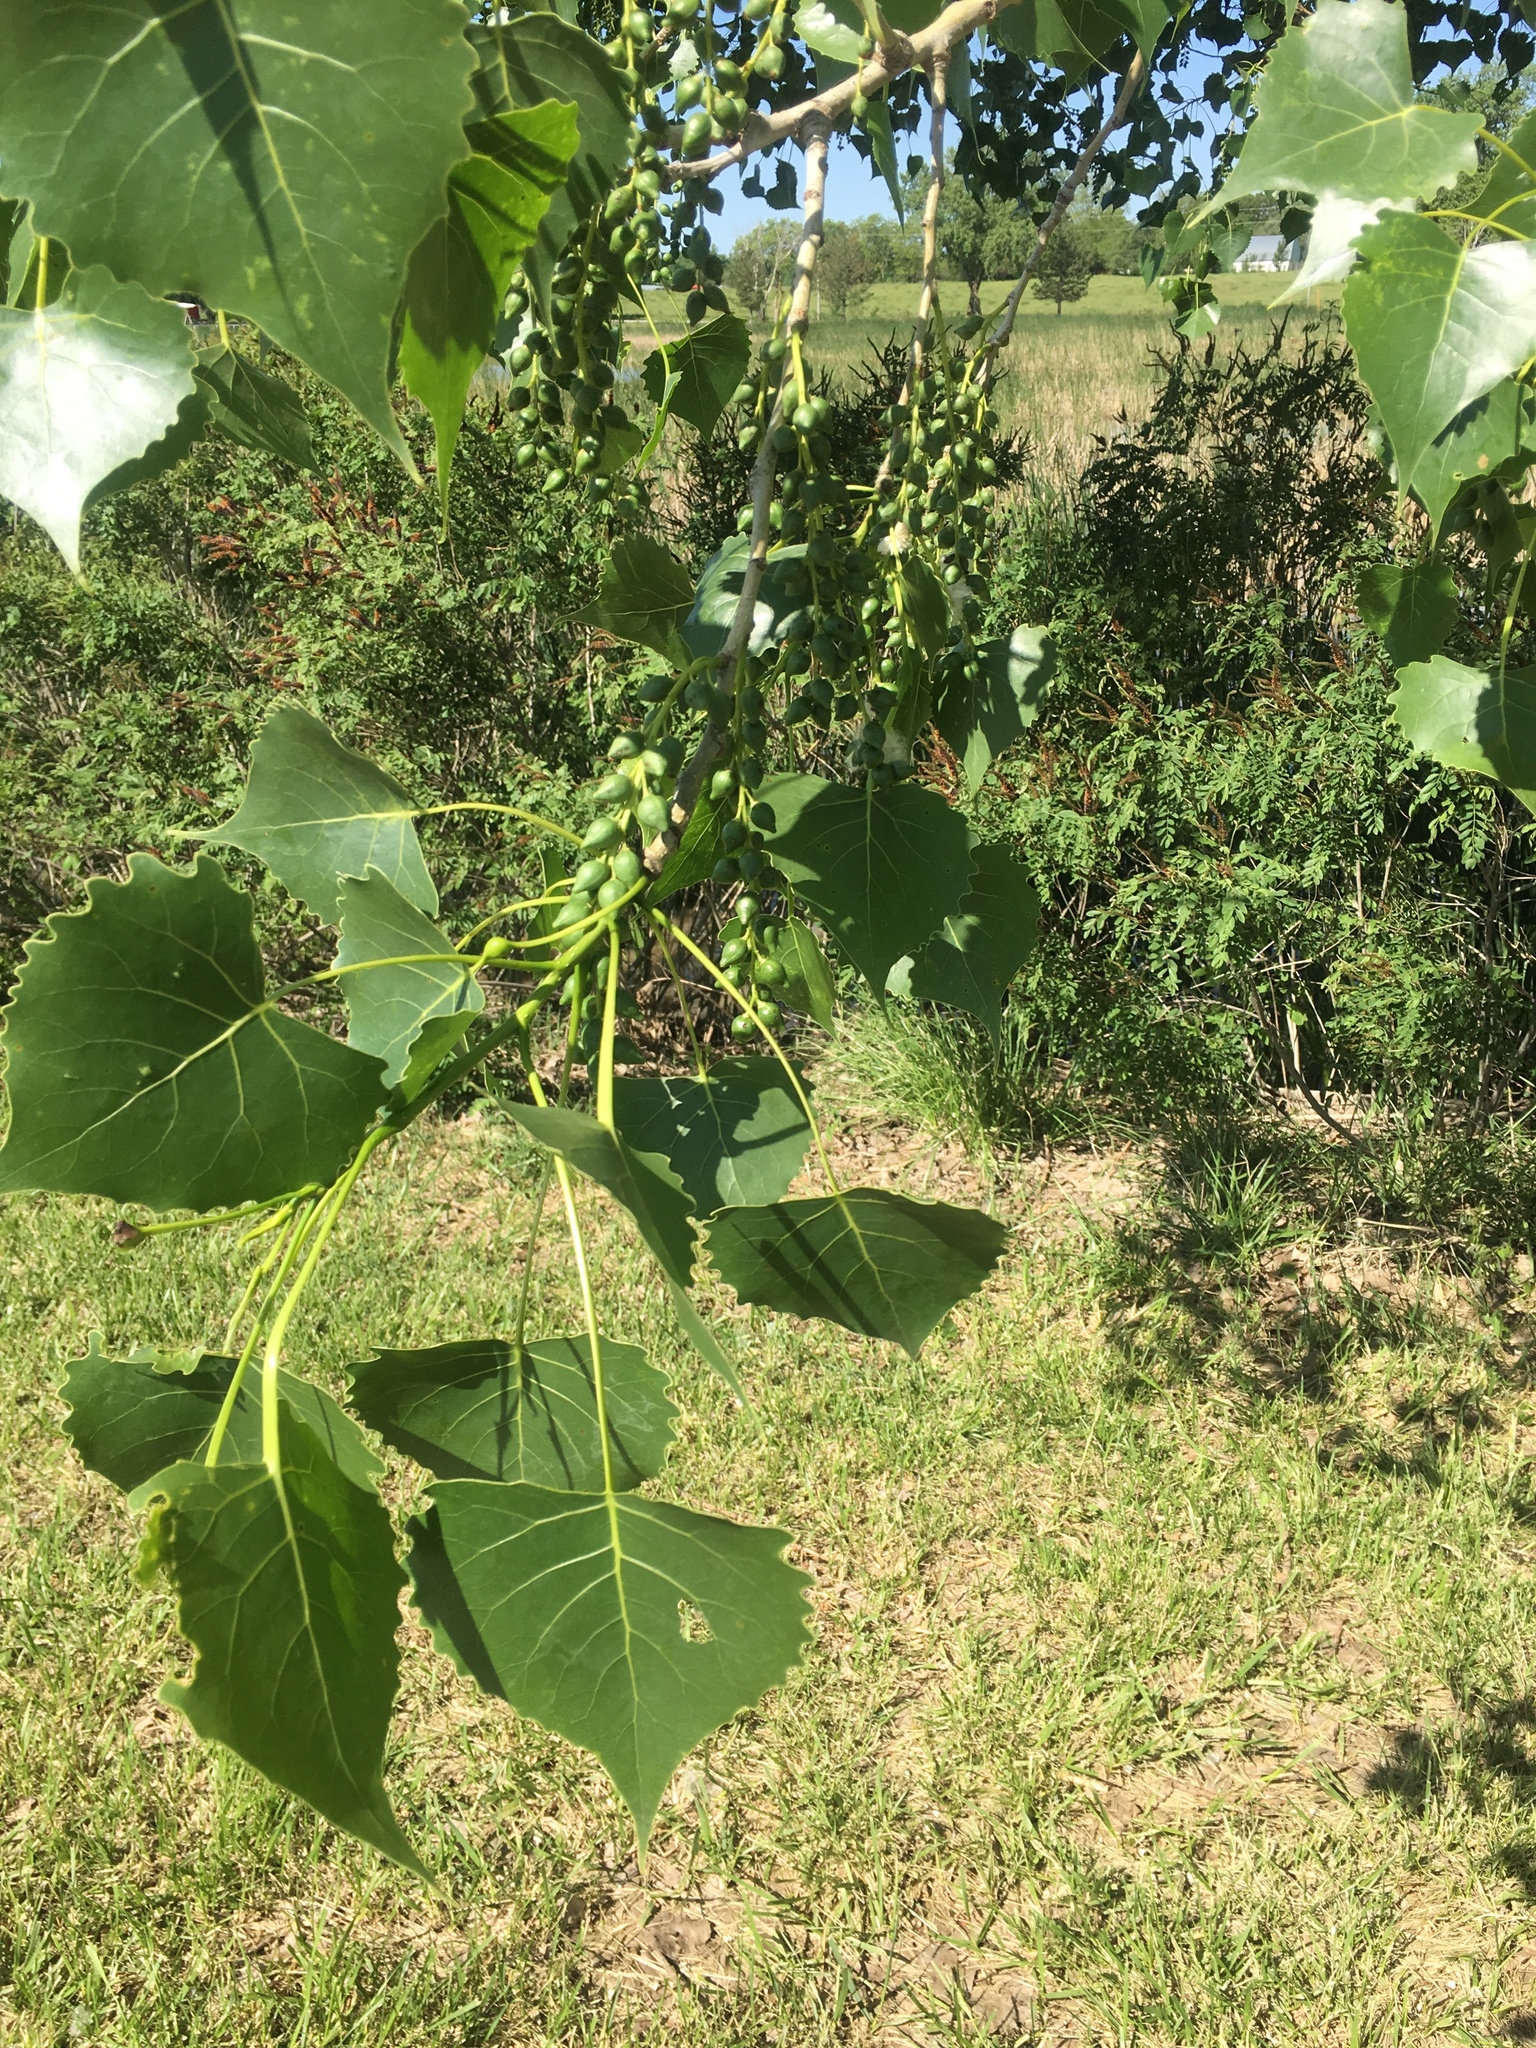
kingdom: Plantae
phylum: Tracheophyta
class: Magnoliopsida
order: Malpighiales
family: Salicaceae
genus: Populus
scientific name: Populus deltoides
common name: Eastern cottonwood
